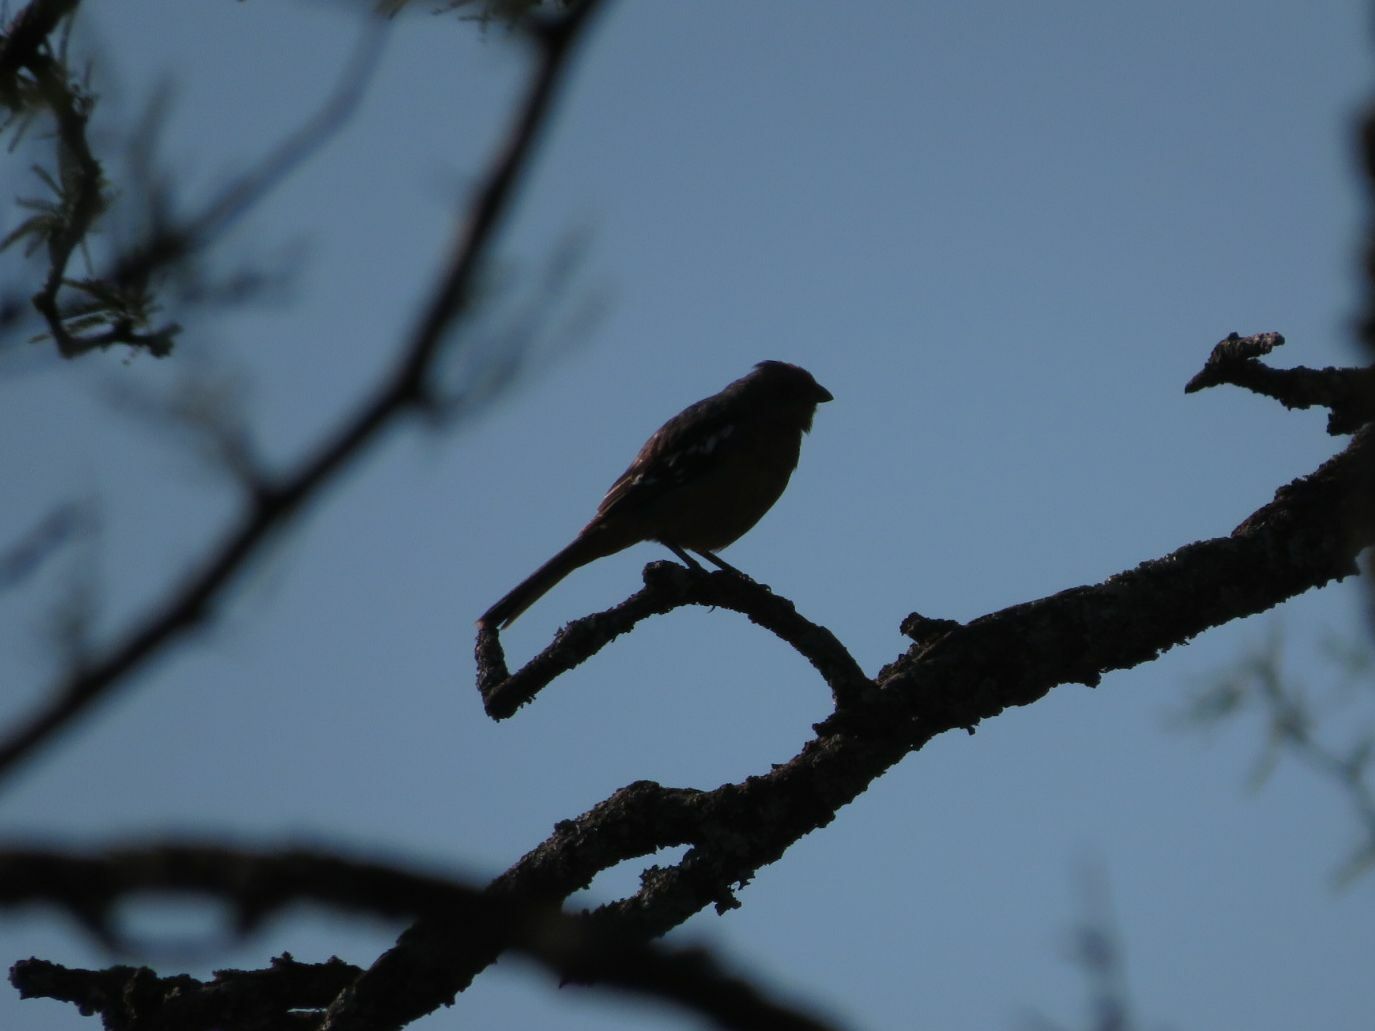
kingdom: Animalia
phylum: Chordata
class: Aves
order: Passeriformes
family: Cotingidae
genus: Phytotoma
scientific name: Phytotoma rutila
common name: White-tipped plantcutter
